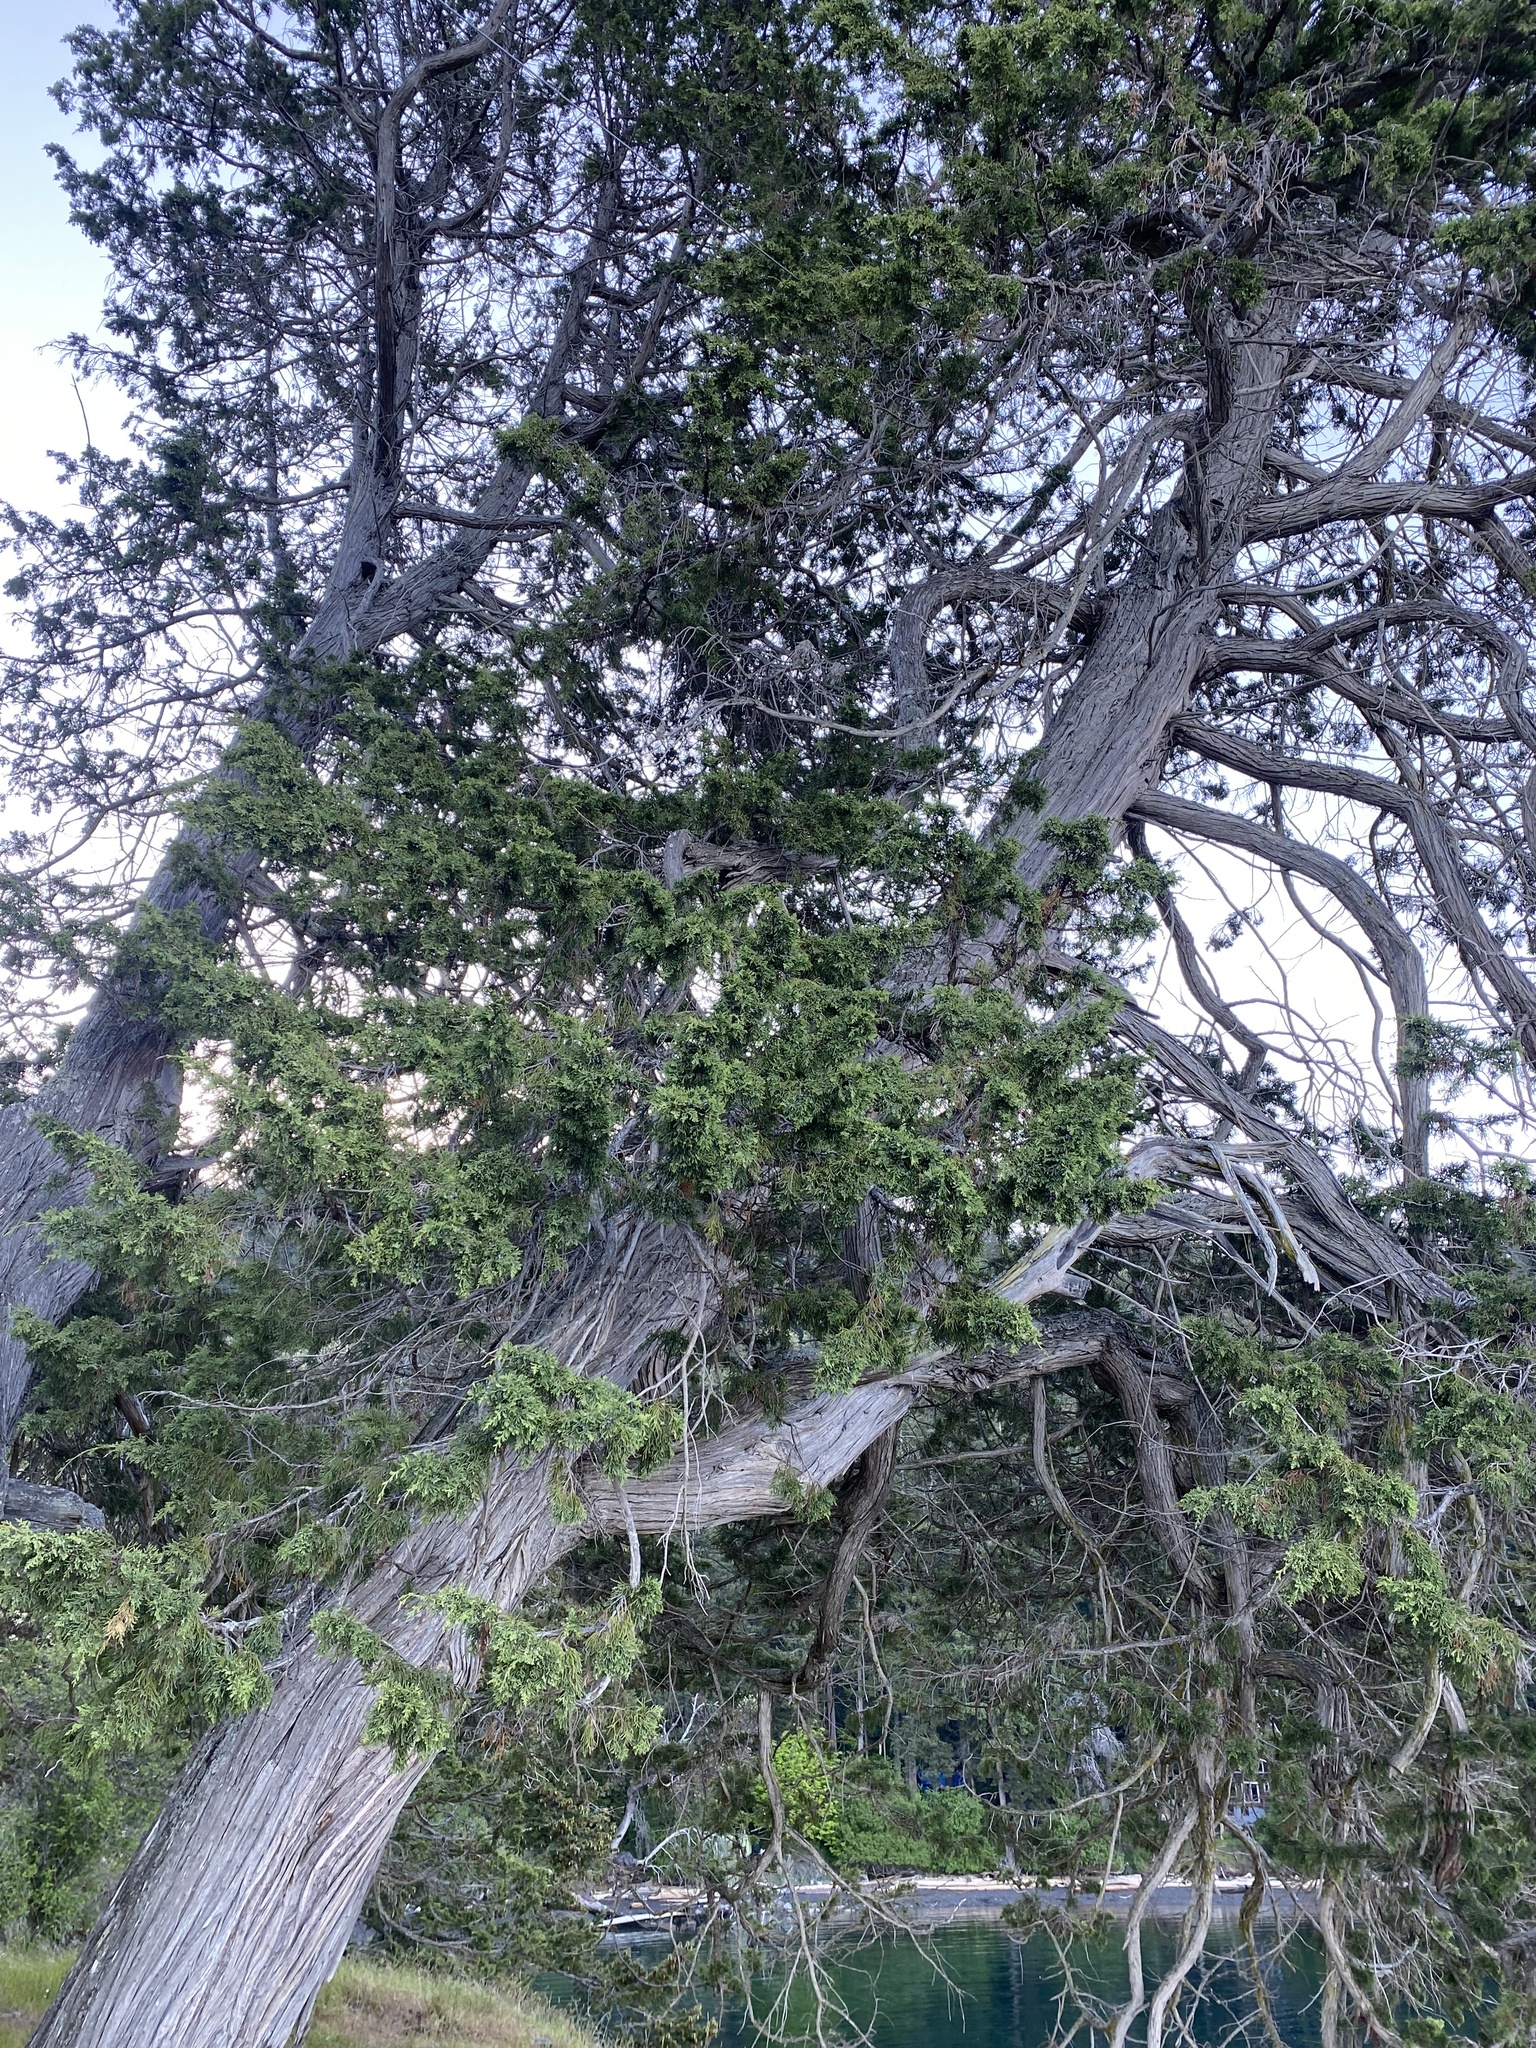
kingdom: Plantae
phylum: Tracheophyta
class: Pinopsida
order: Pinales
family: Cupressaceae
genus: Juniperus
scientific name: Juniperus scopulorum
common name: Rocky mountain juniper
